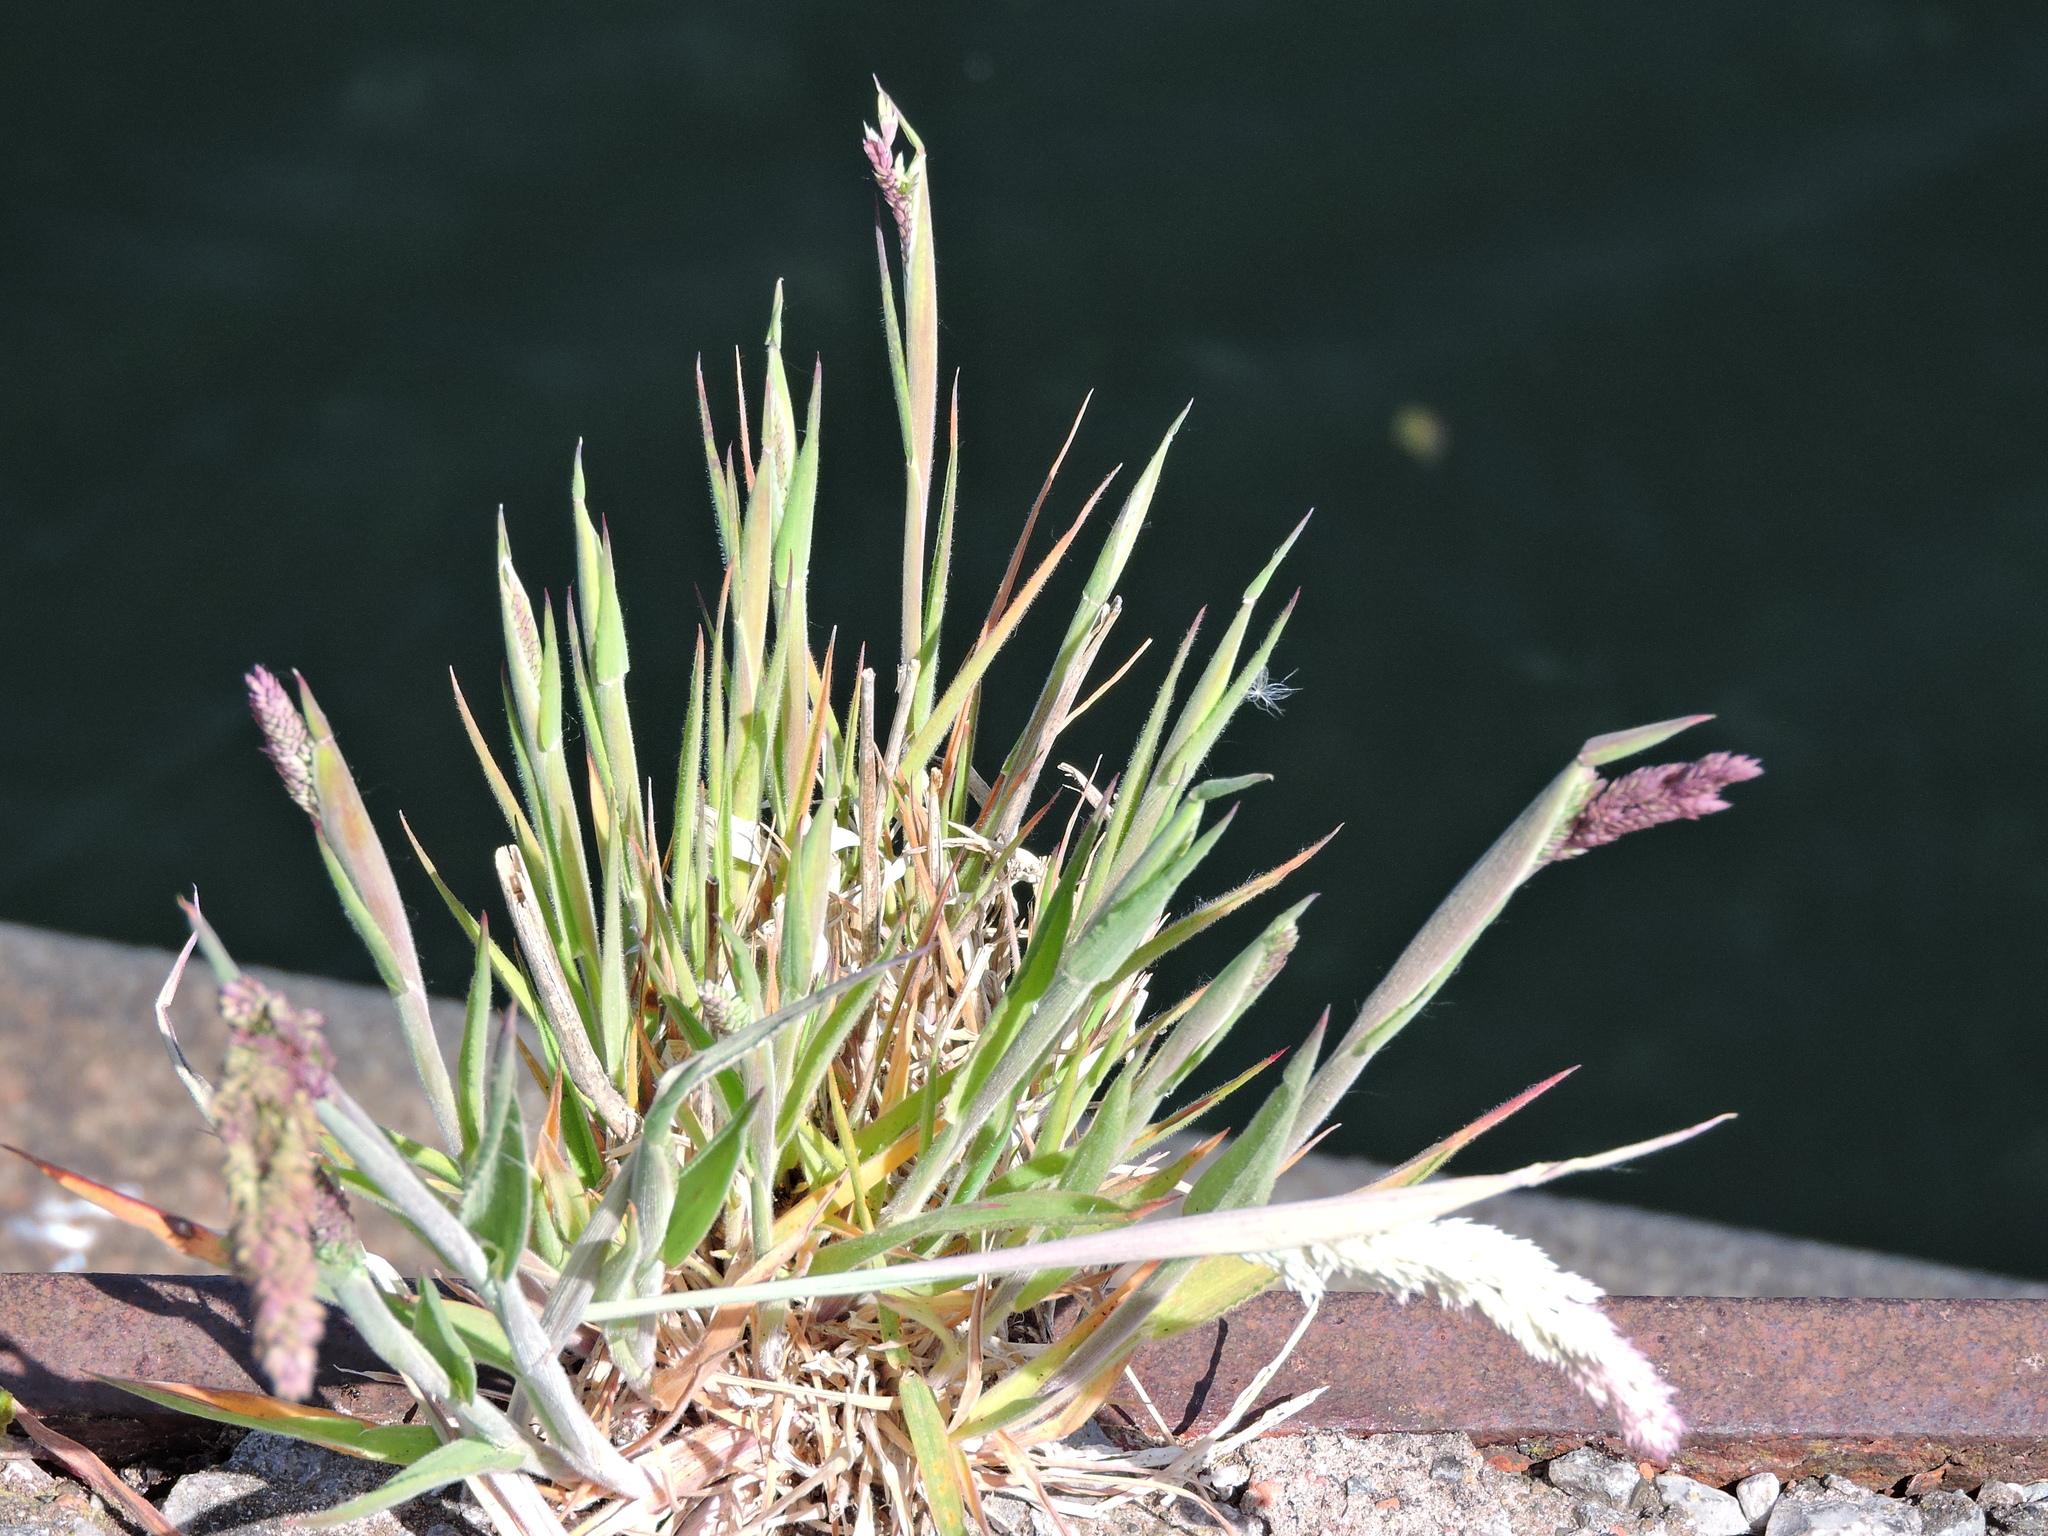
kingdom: Plantae
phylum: Tracheophyta
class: Liliopsida
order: Poales
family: Poaceae
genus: Holcus
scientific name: Holcus lanatus
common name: Yorkshire-fog
